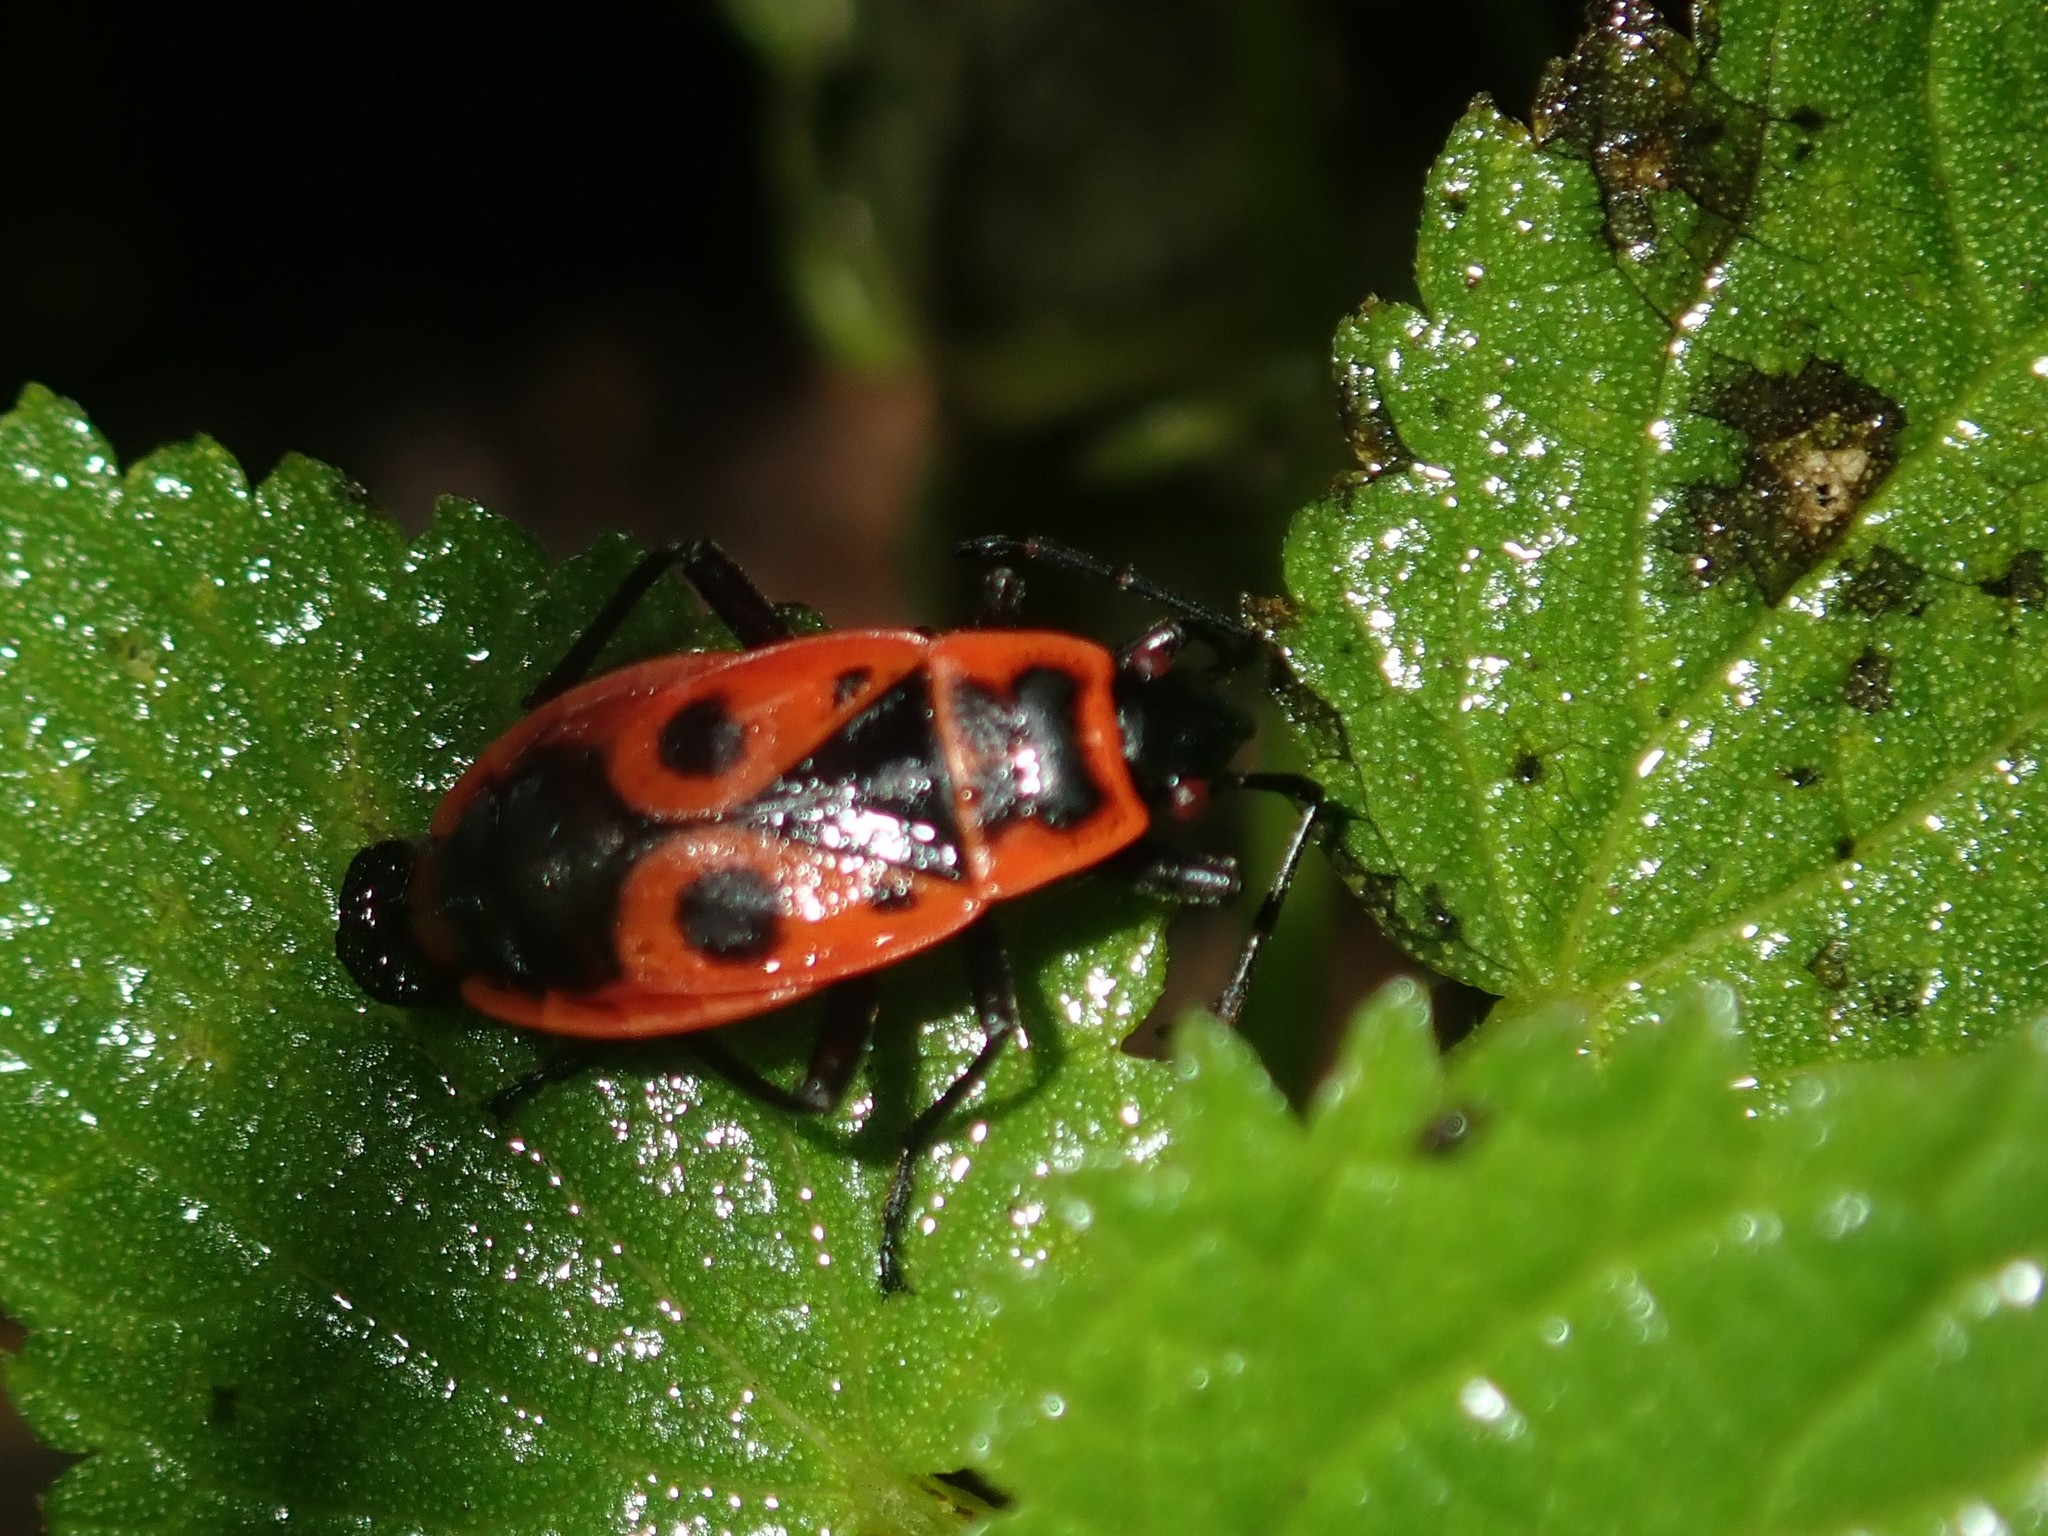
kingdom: Animalia
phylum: Arthropoda
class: Insecta
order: Hemiptera
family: Pyrrhocoridae
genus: Pyrrhocoris
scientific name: Pyrrhocoris apterus
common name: Firebug
